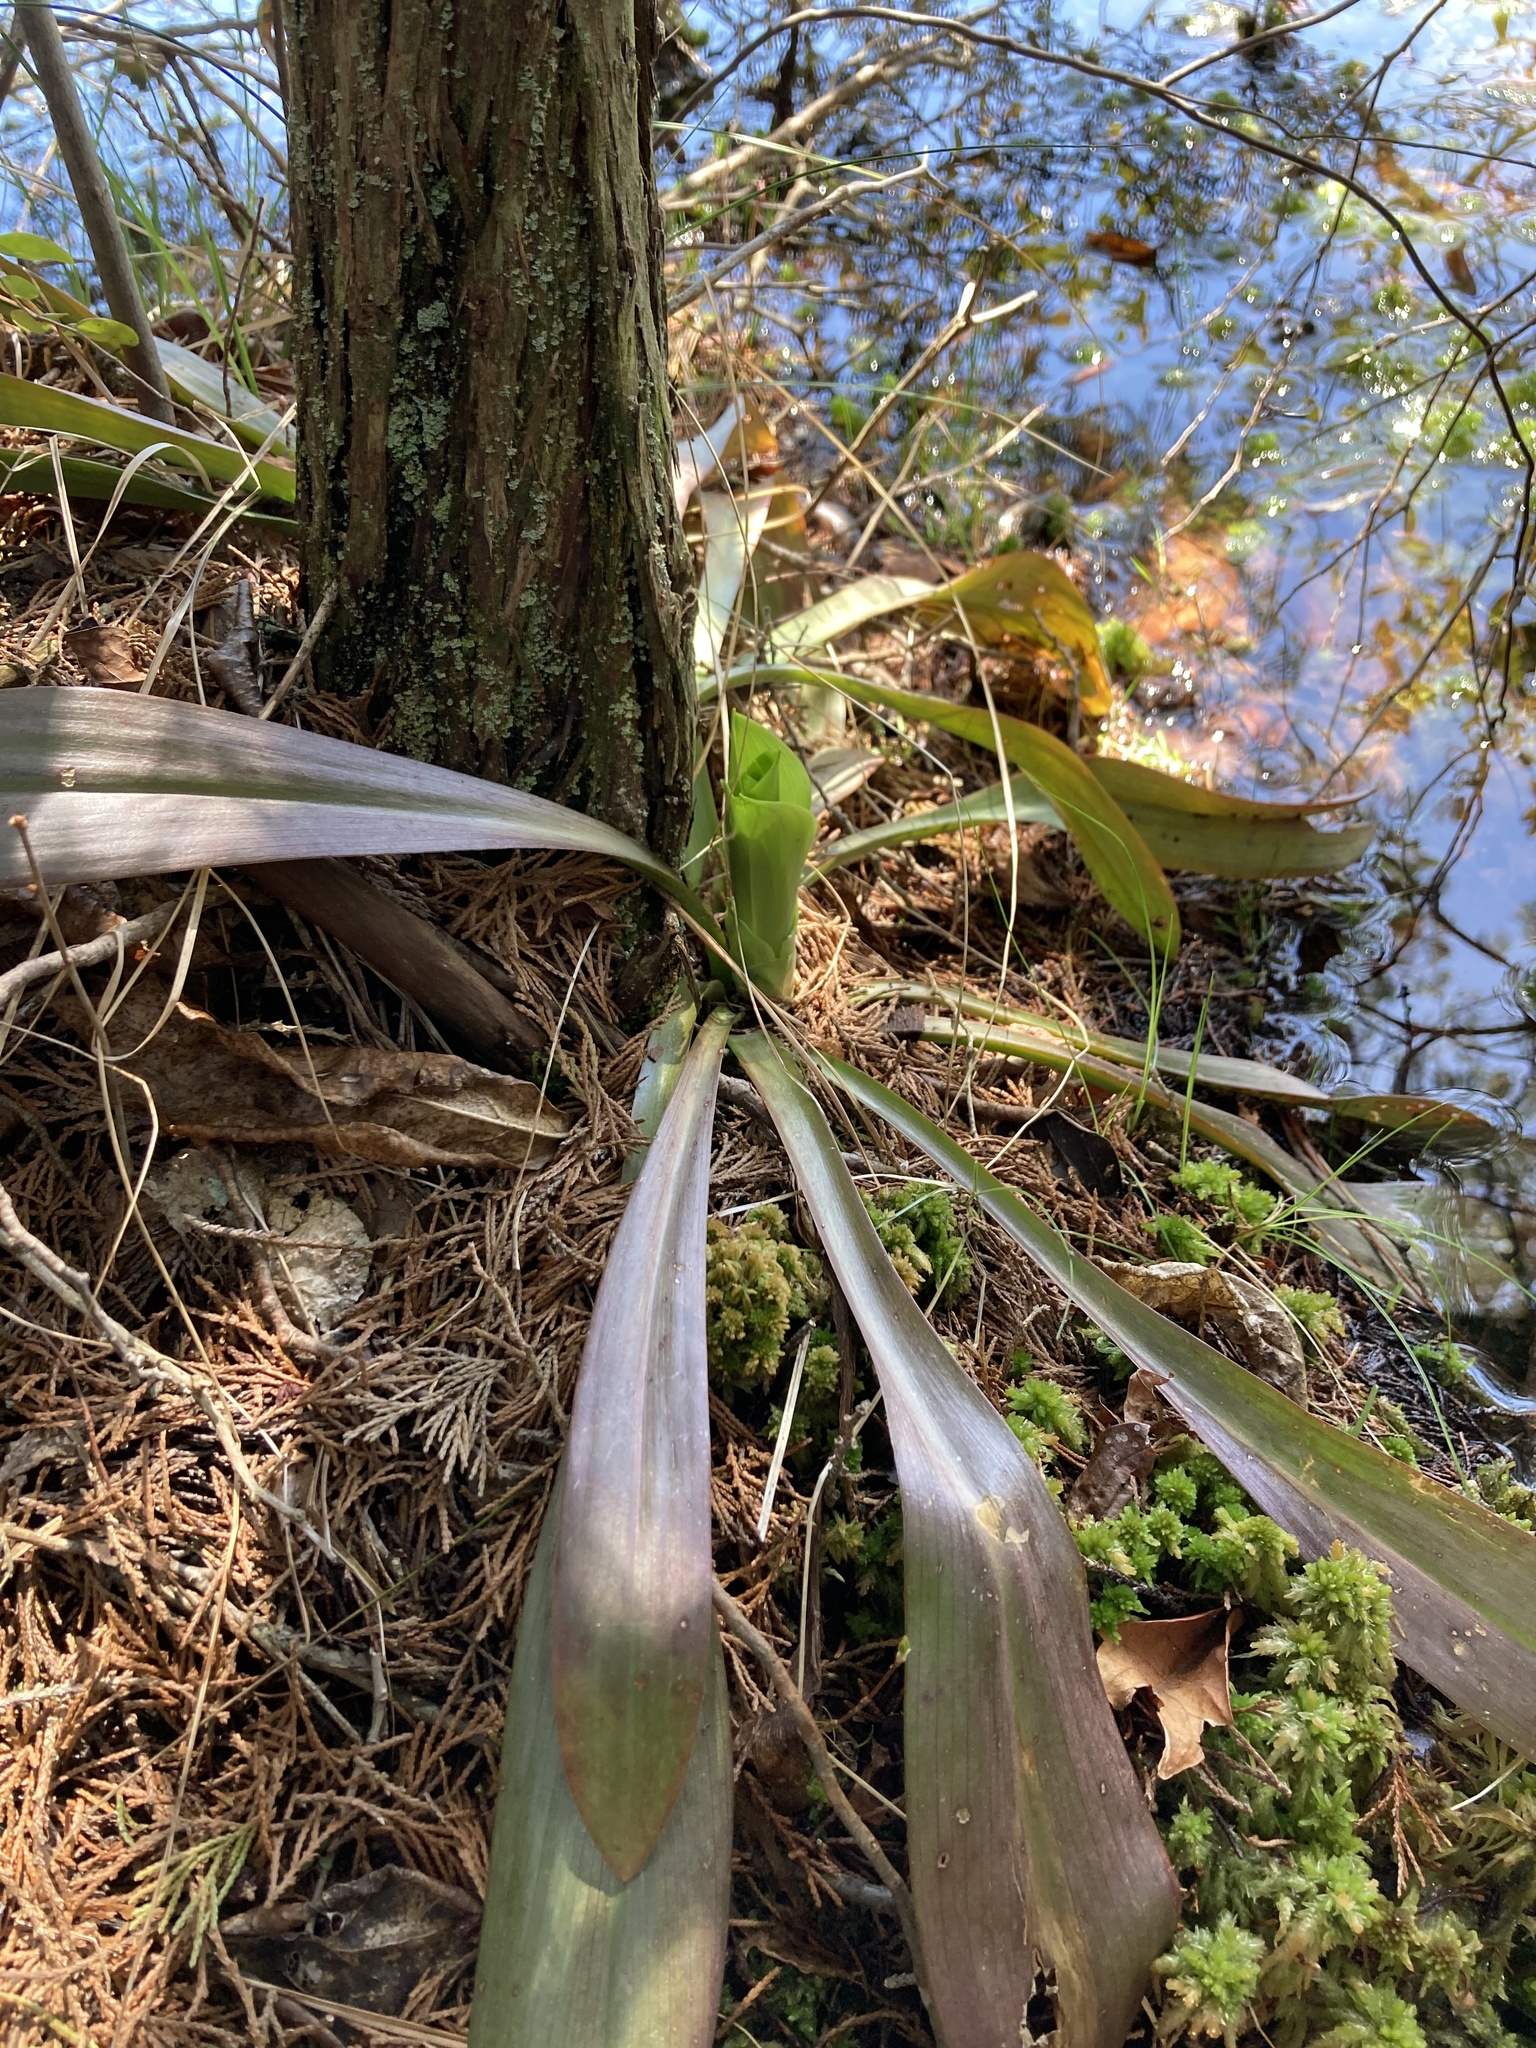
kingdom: Plantae
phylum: Tracheophyta
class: Liliopsida
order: Liliales
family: Melanthiaceae
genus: Helonias
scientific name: Helonias bullata
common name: Swamp-pink
